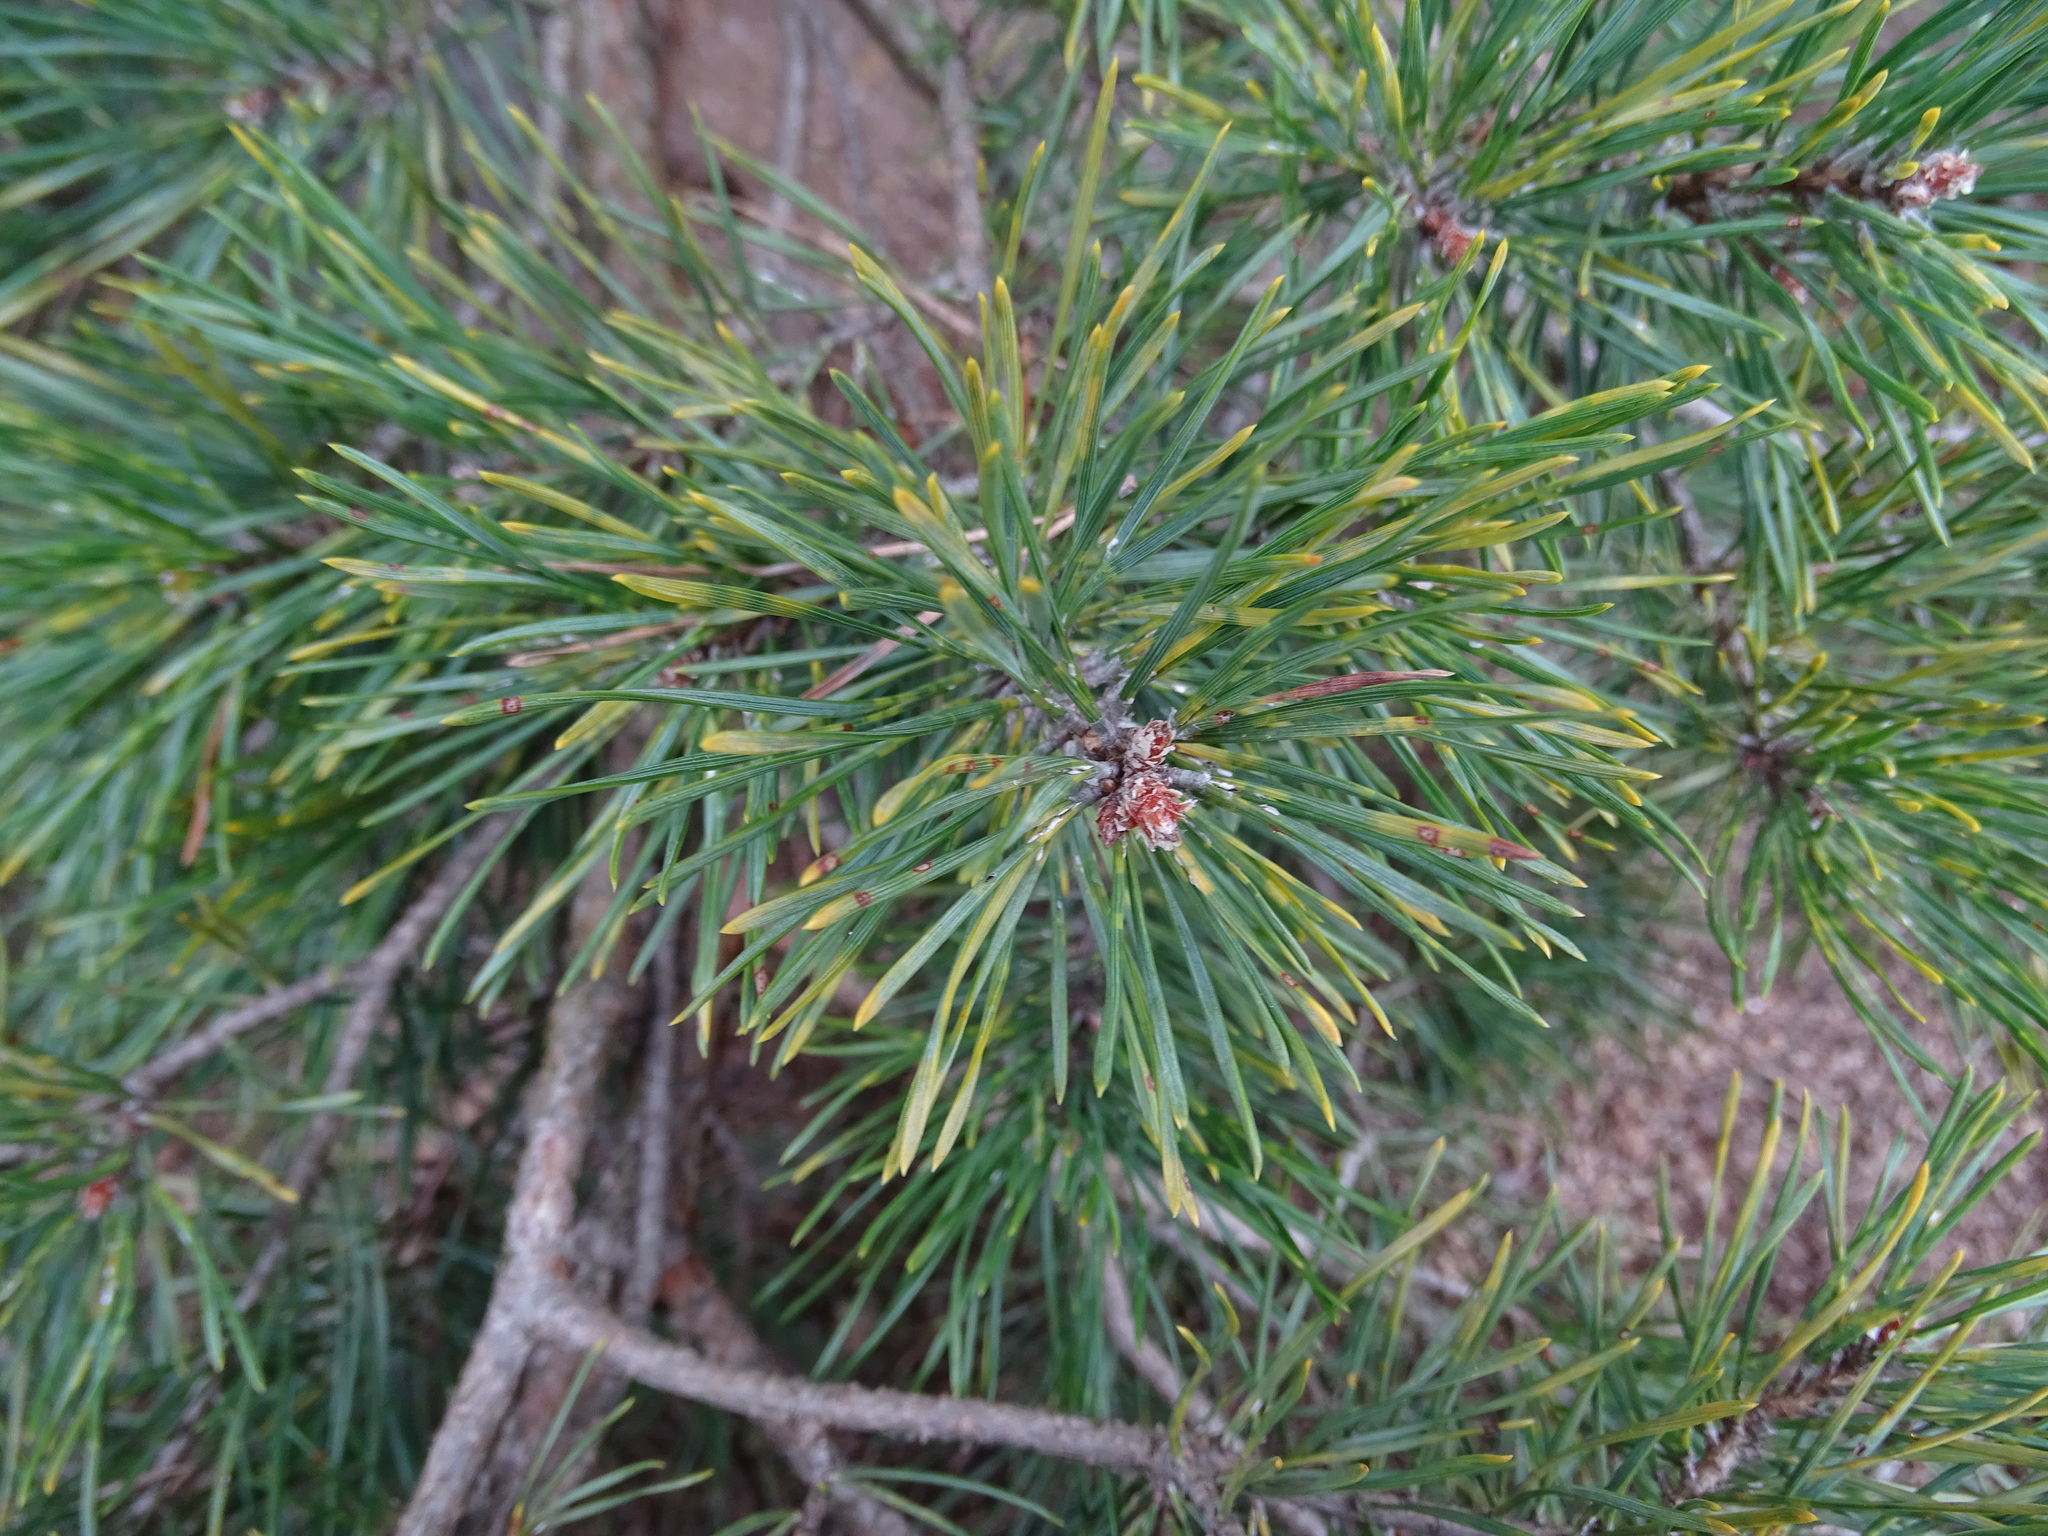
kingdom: Plantae
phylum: Tracheophyta
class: Pinopsida
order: Pinales
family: Pinaceae
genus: Pinus
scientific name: Pinus sylvestris
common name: Scots pine
